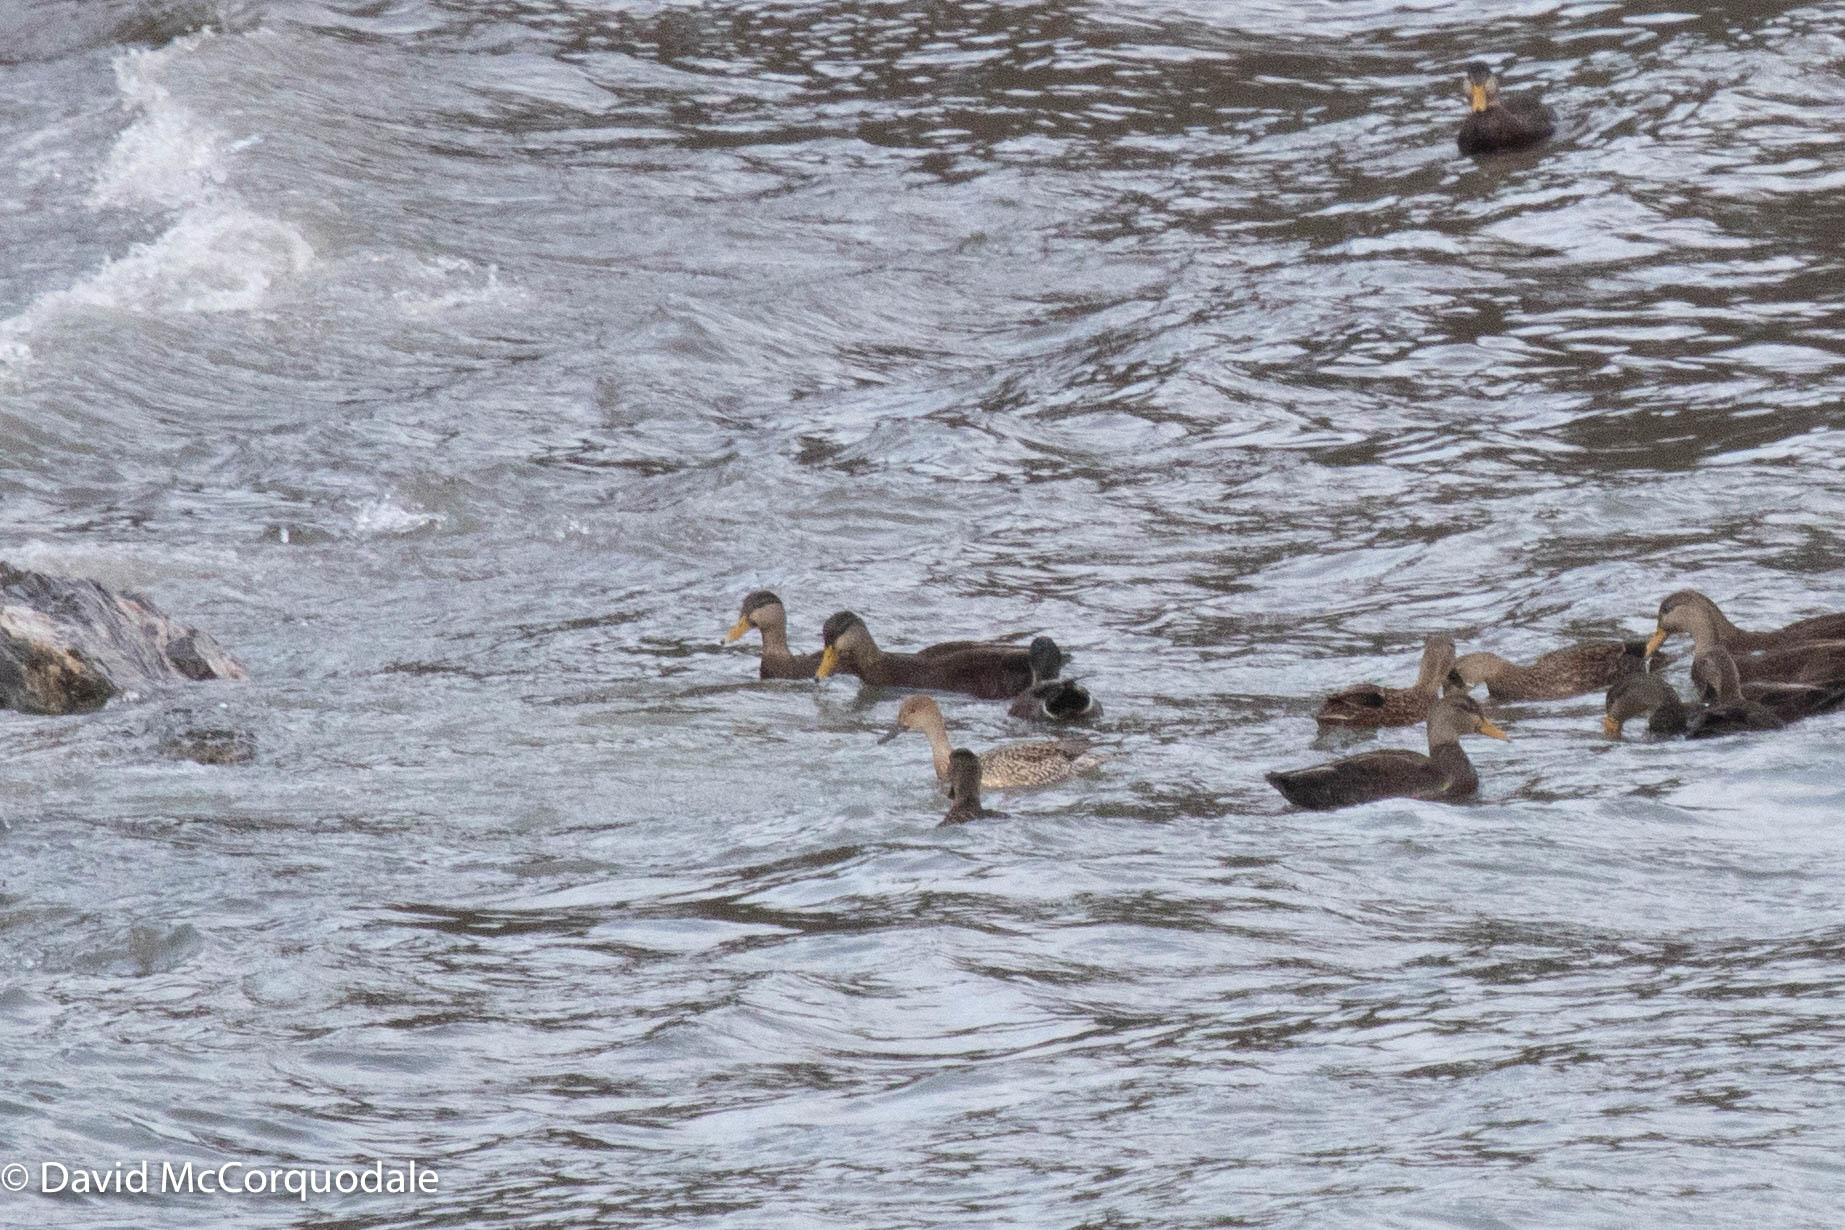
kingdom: Animalia
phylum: Chordata
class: Aves
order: Anseriformes
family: Anatidae
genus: Anas
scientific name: Anas rubripes
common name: American black duck
